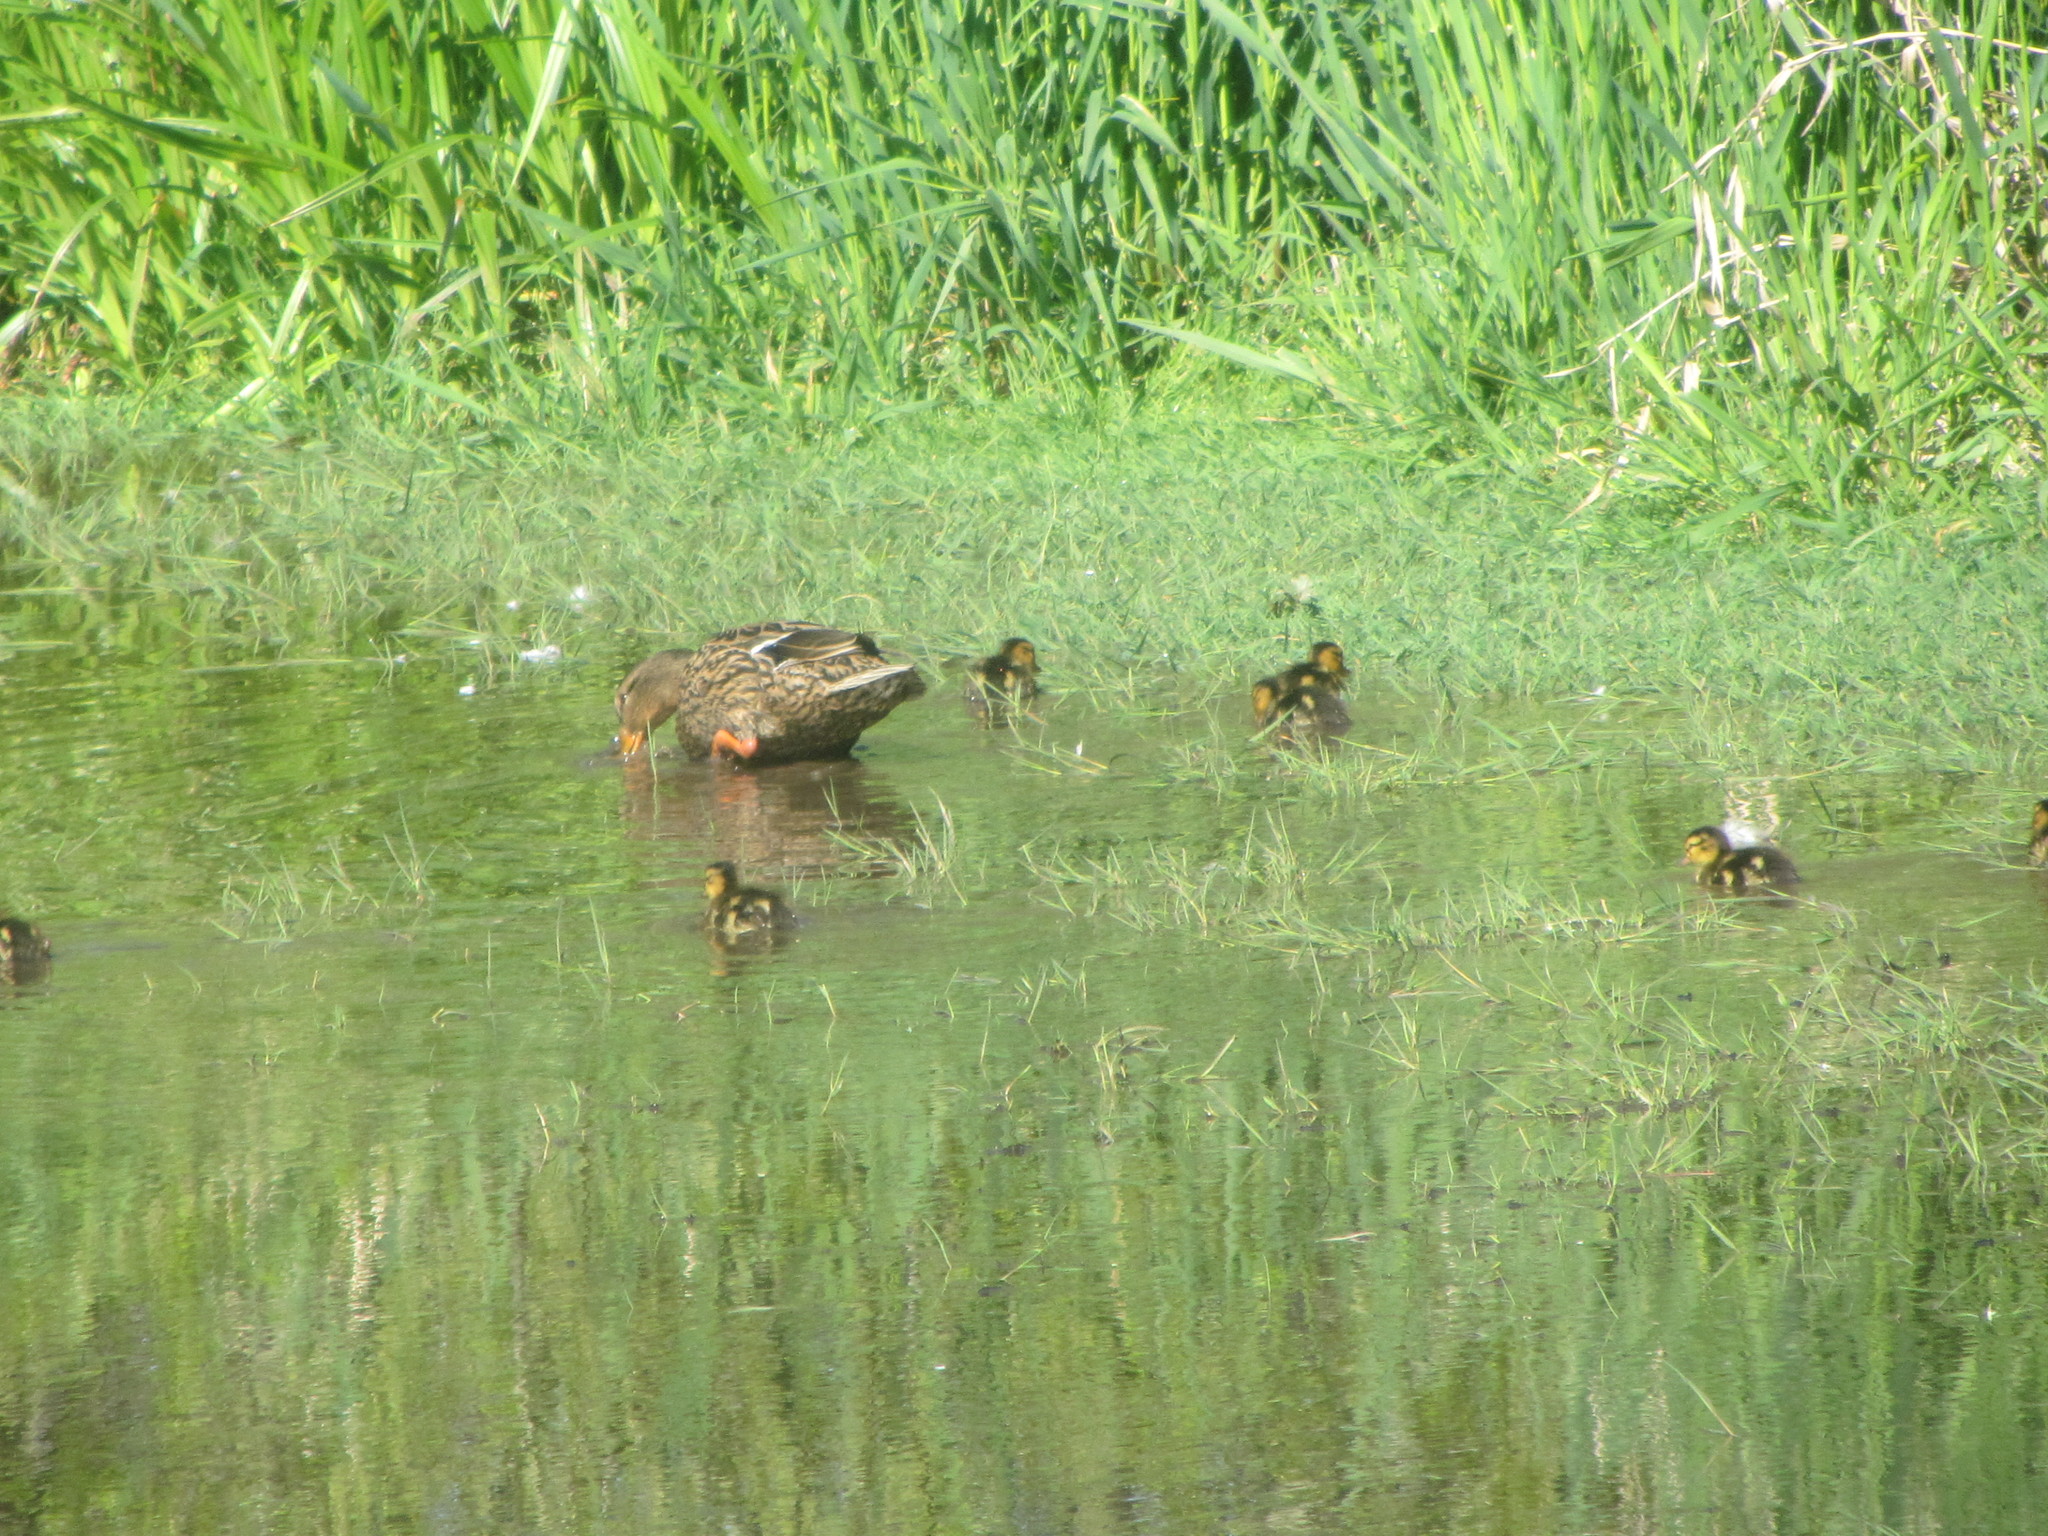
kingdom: Animalia
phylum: Chordata
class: Aves
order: Anseriformes
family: Anatidae
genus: Anas
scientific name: Anas platyrhynchos
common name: Mallard
